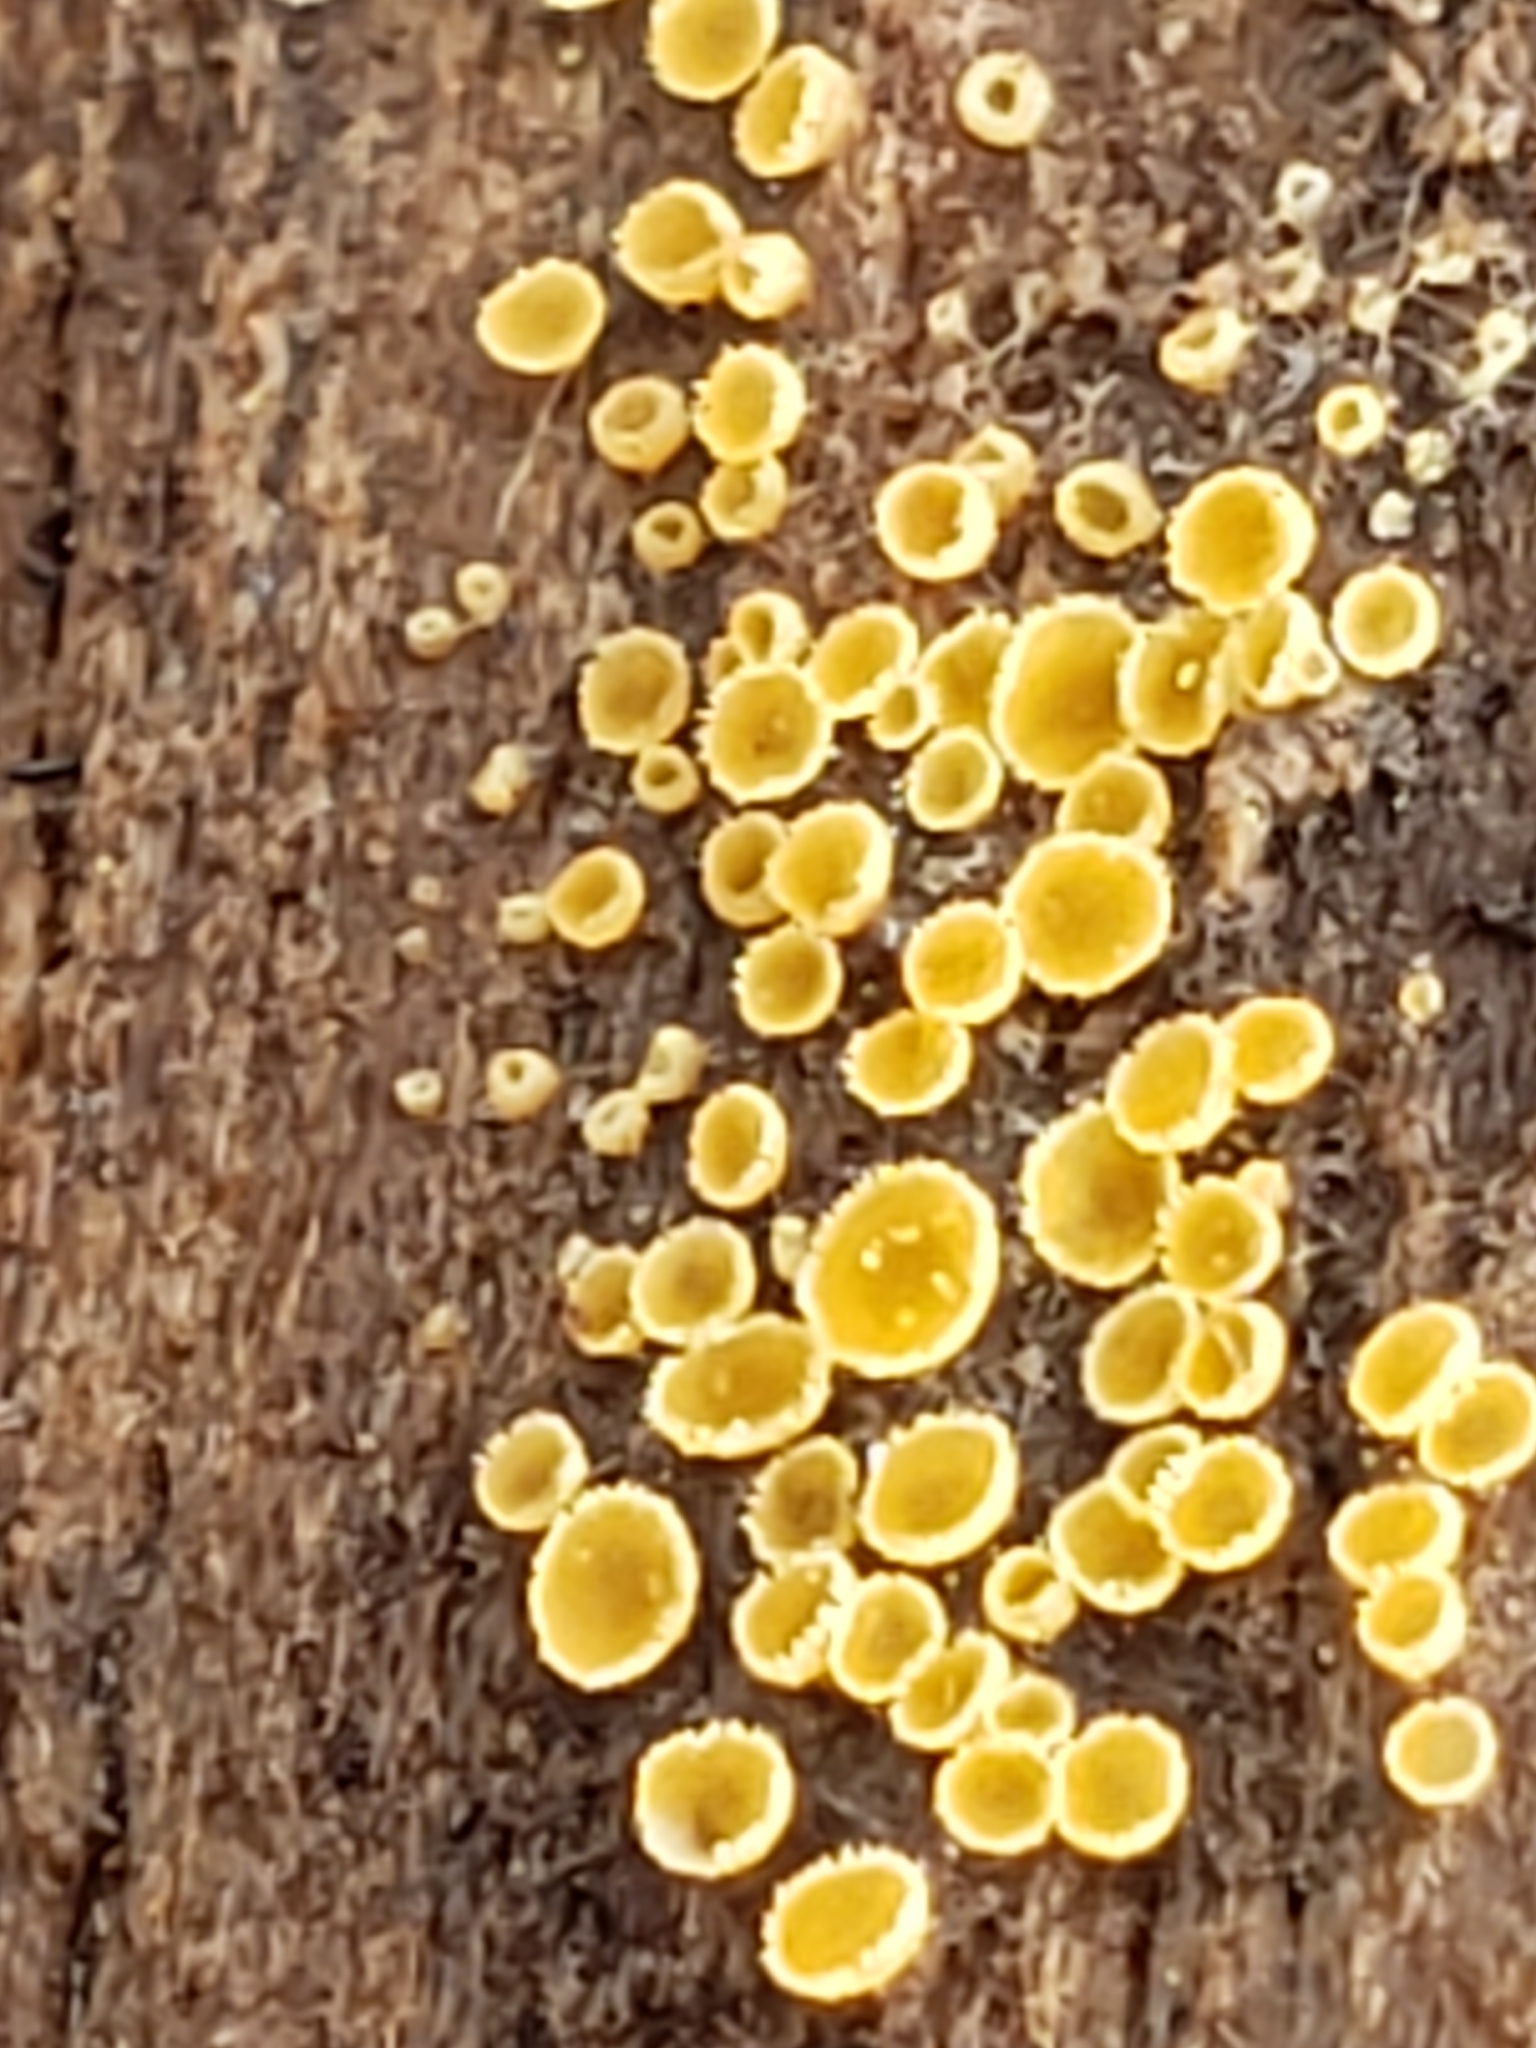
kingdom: Fungi
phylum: Ascomycota
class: Leotiomycetes
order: Helotiales
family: Arachnopezizaceae
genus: Arachnopeziza
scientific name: Arachnopeziza trabinelloides
